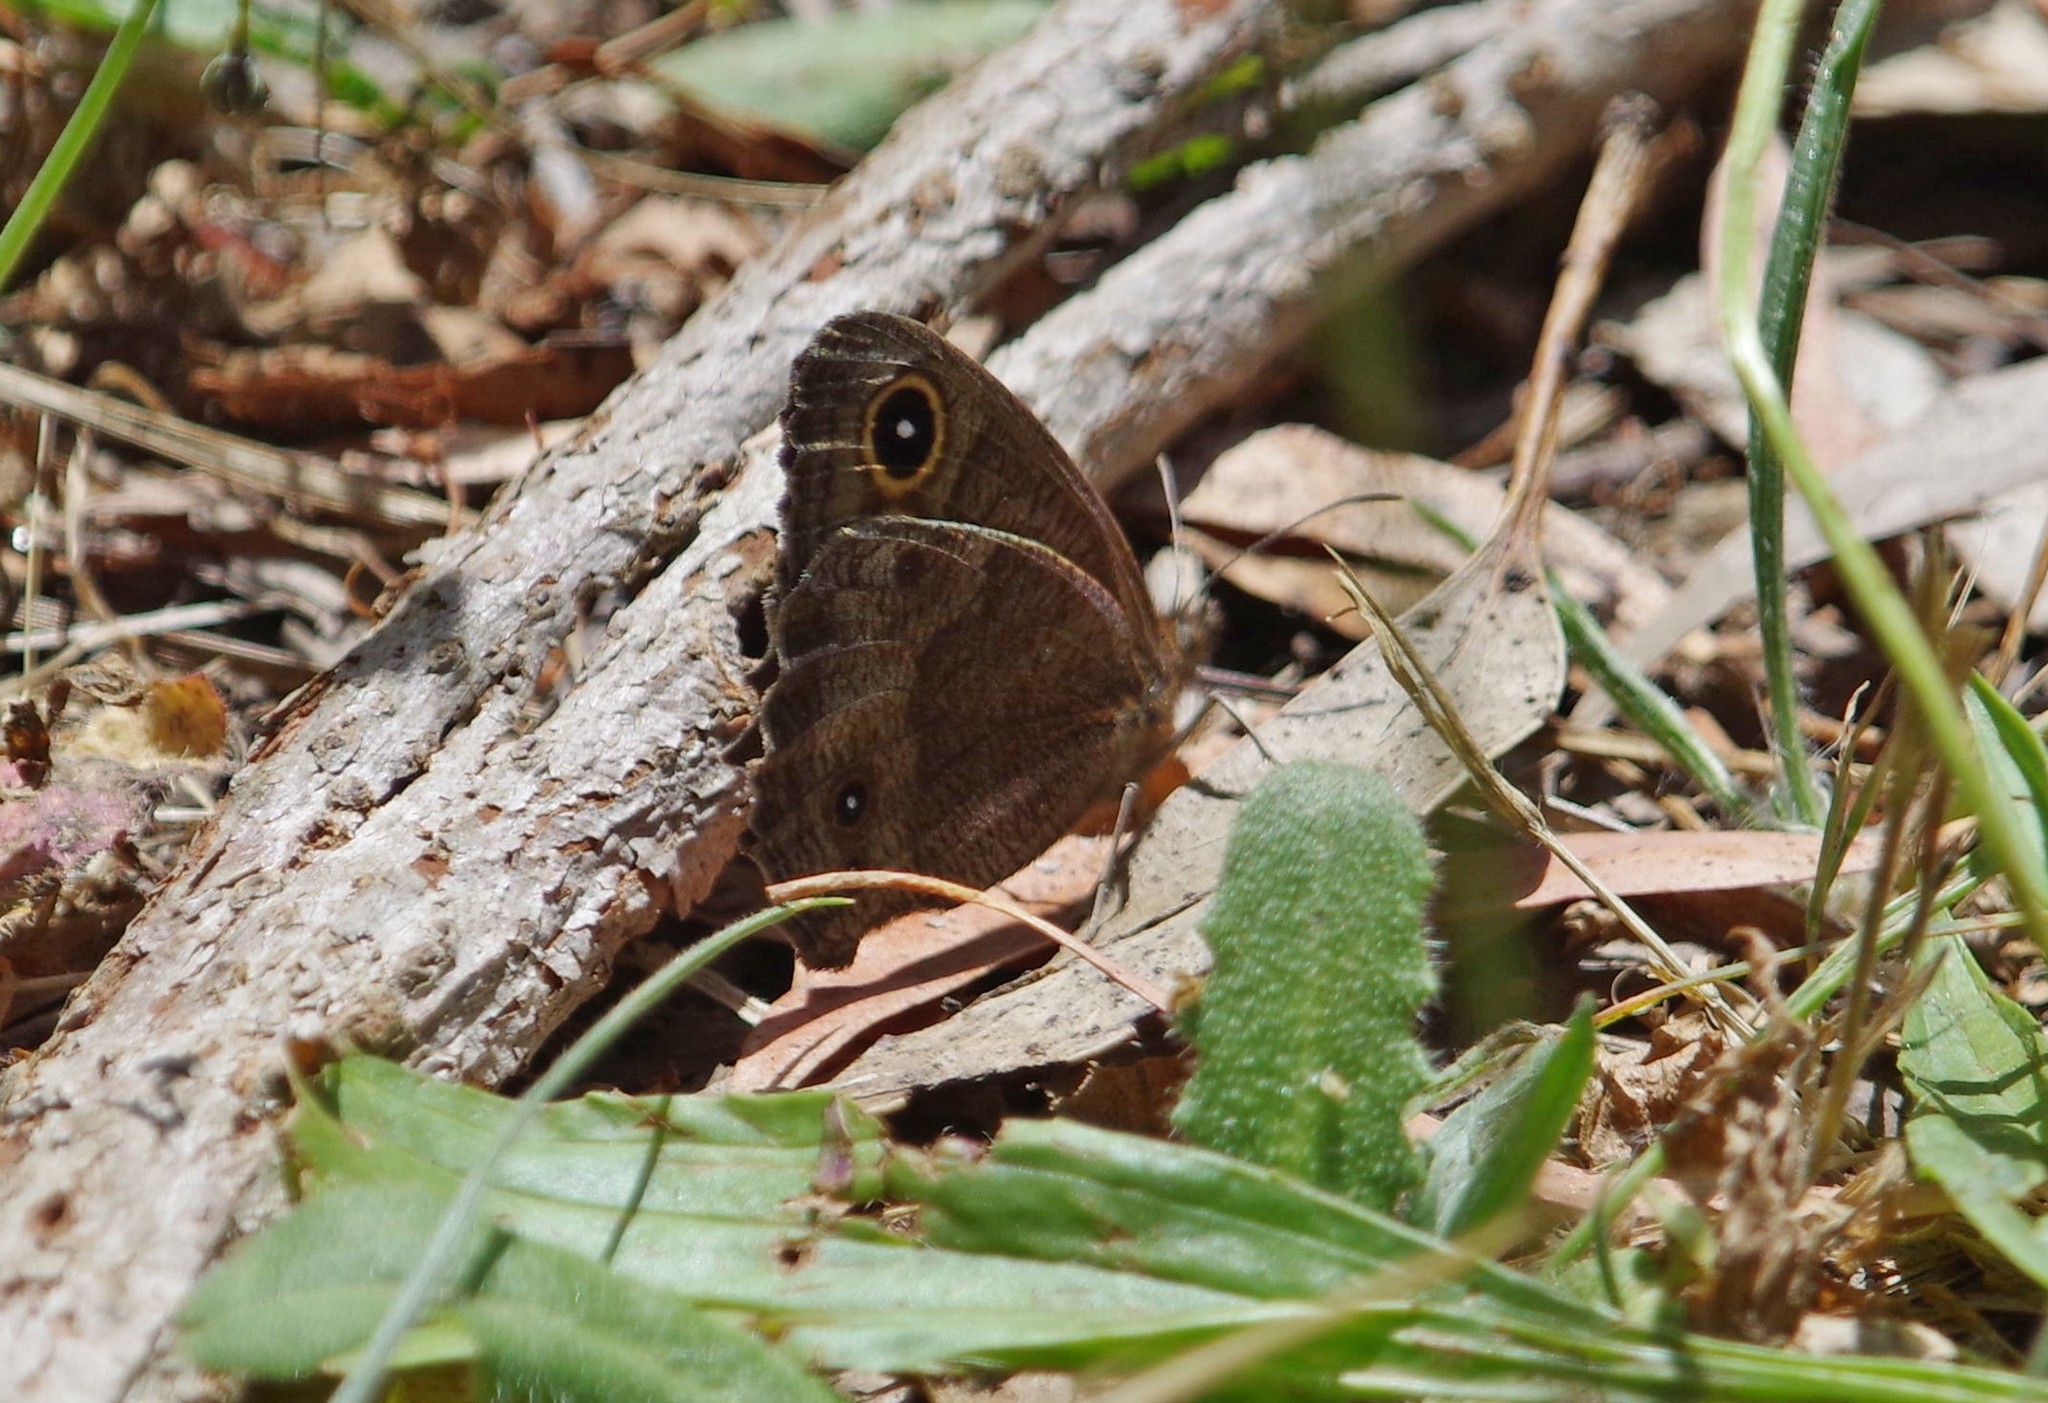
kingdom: Animalia
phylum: Arthropoda
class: Insecta
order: Lepidoptera
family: Nymphalidae
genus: Cercyonis
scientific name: Cercyonis pegala
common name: Common wood-nymph
